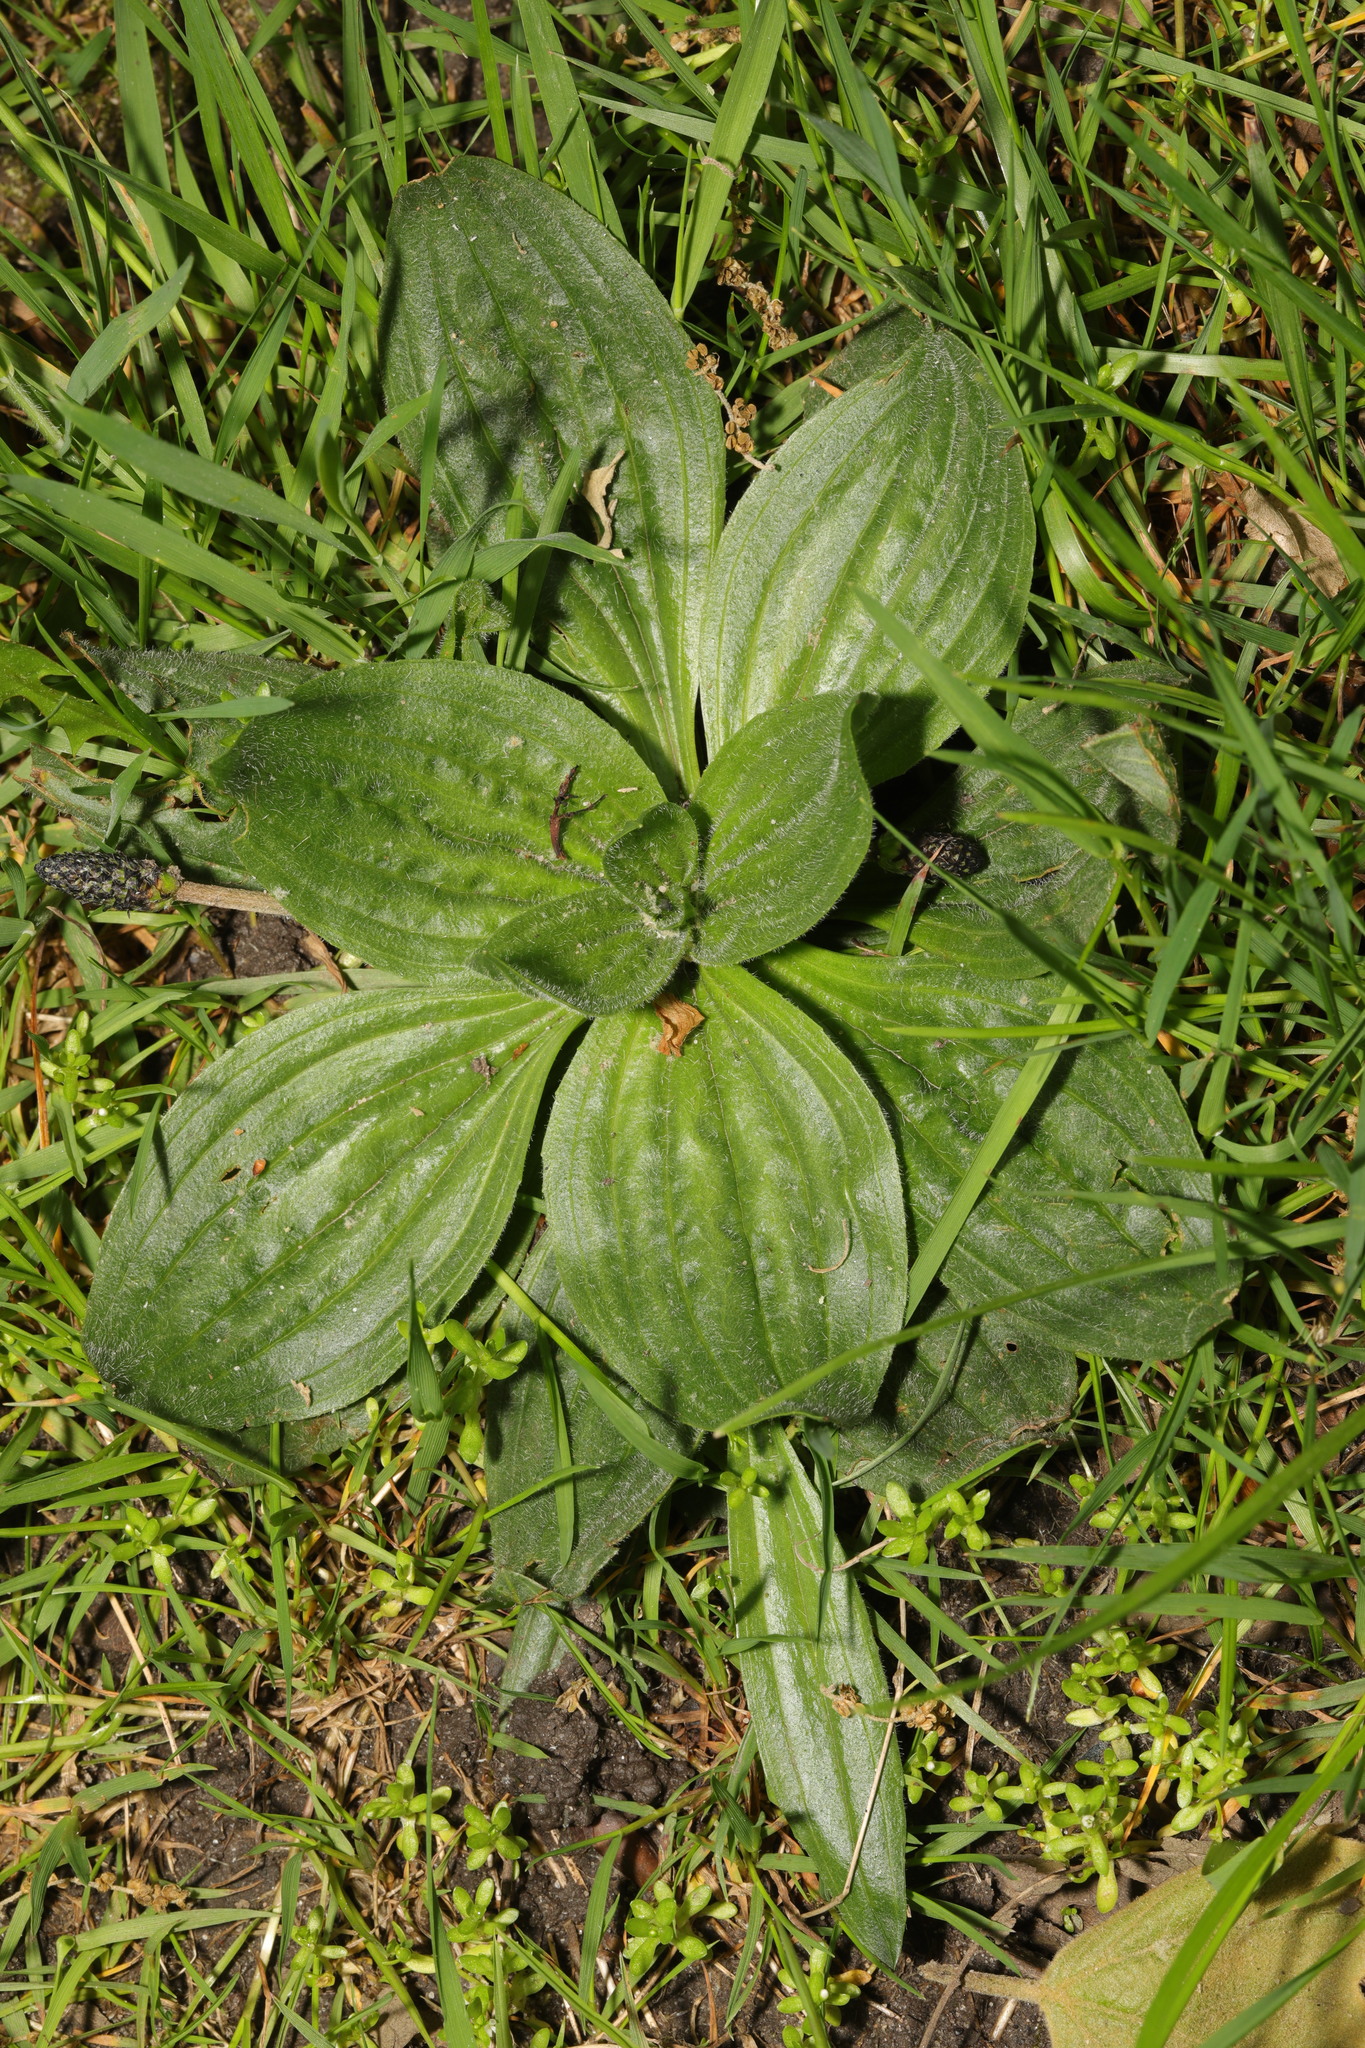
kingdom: Plantae
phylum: Tracheophyta
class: Magnoliopsida
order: Lamiales
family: Plantaginaceae
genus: Plantago
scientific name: Plantago media
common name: Hoary plantain
